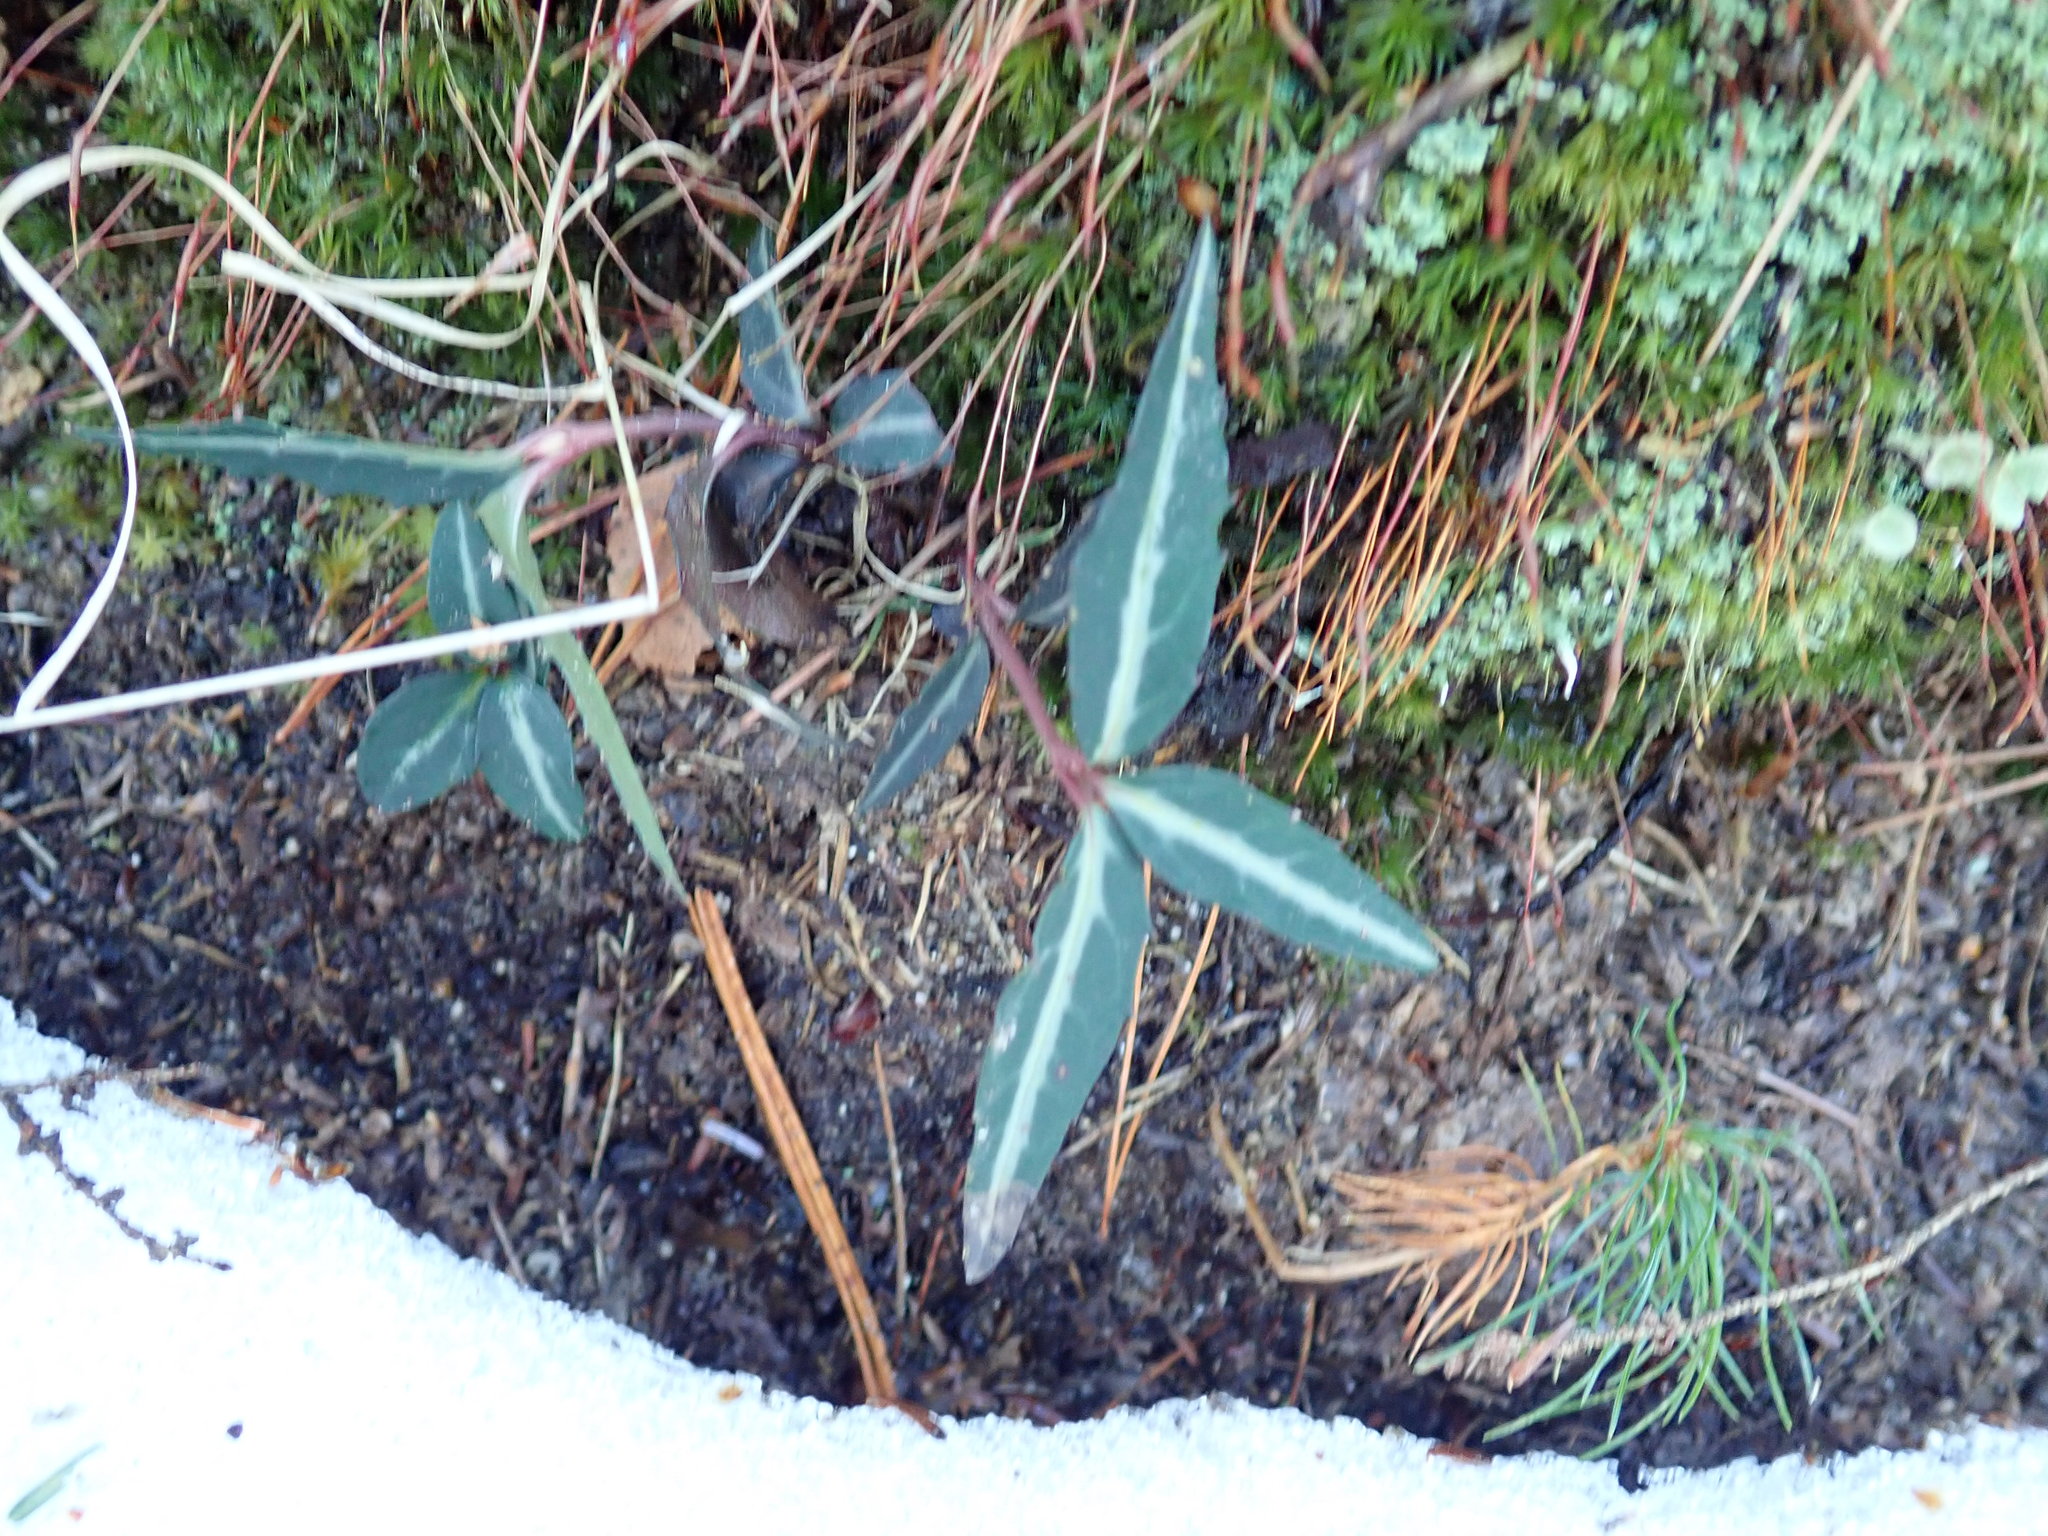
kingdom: Plantae
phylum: Tracheophyta
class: Magnoliopsida
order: Ericales
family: Ericaceae
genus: Chimaphila
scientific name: Chimaphila maculata
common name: Spotted pipsissewa
